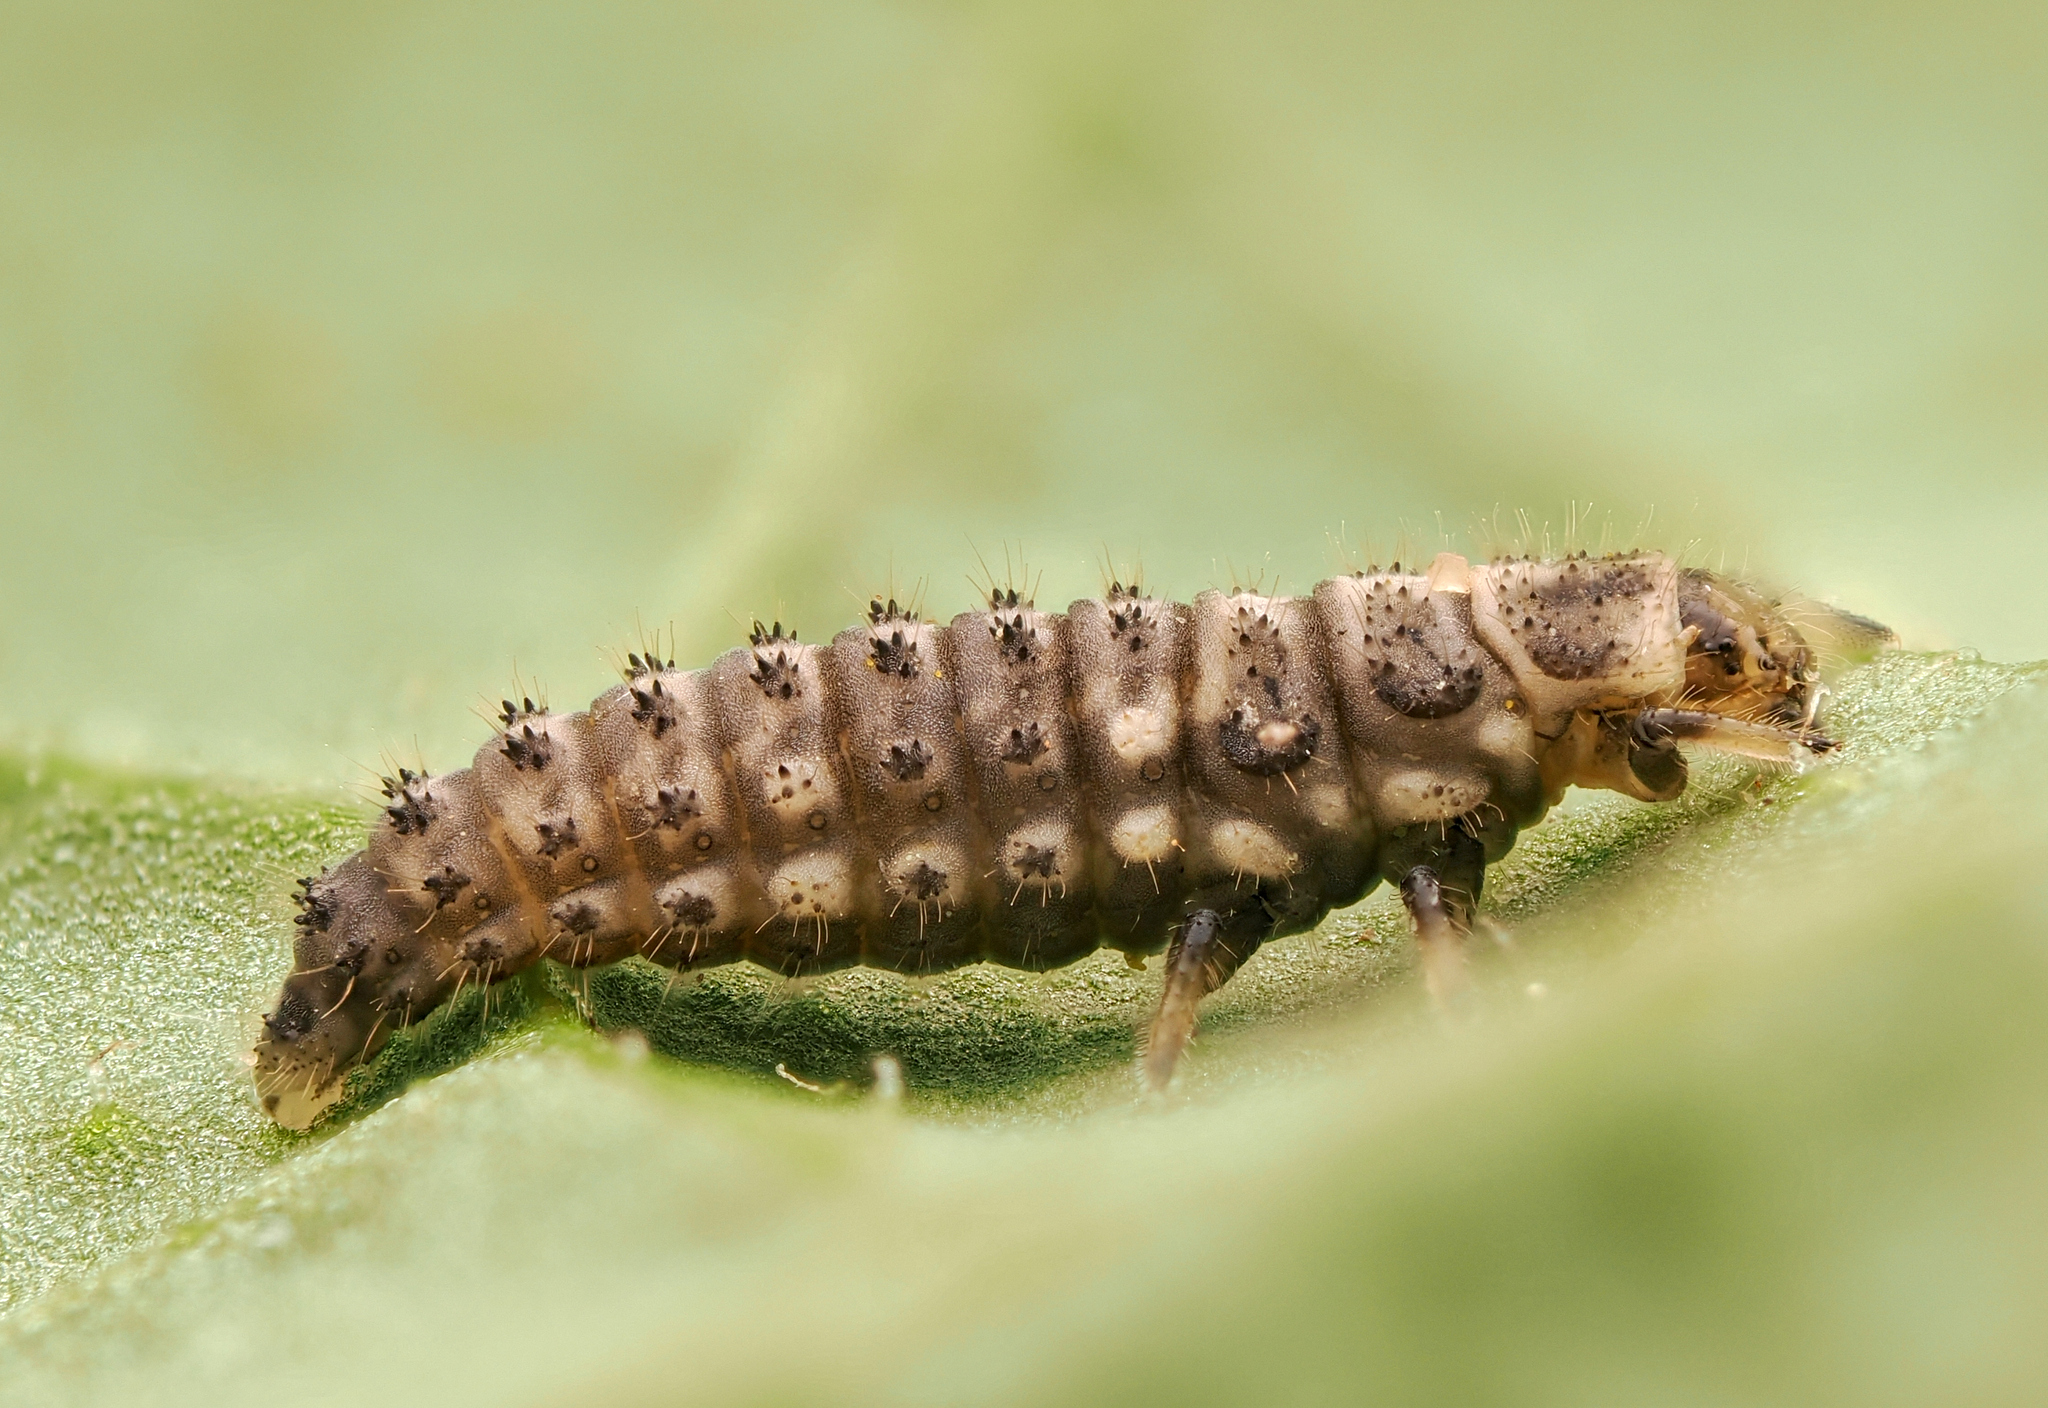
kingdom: Animalia
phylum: Arthropoda
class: Insecta
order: Coleoptera
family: Coccinellidae
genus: Ceratomegilla
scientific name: Ceratomegilla Semiadalia rufocincta
